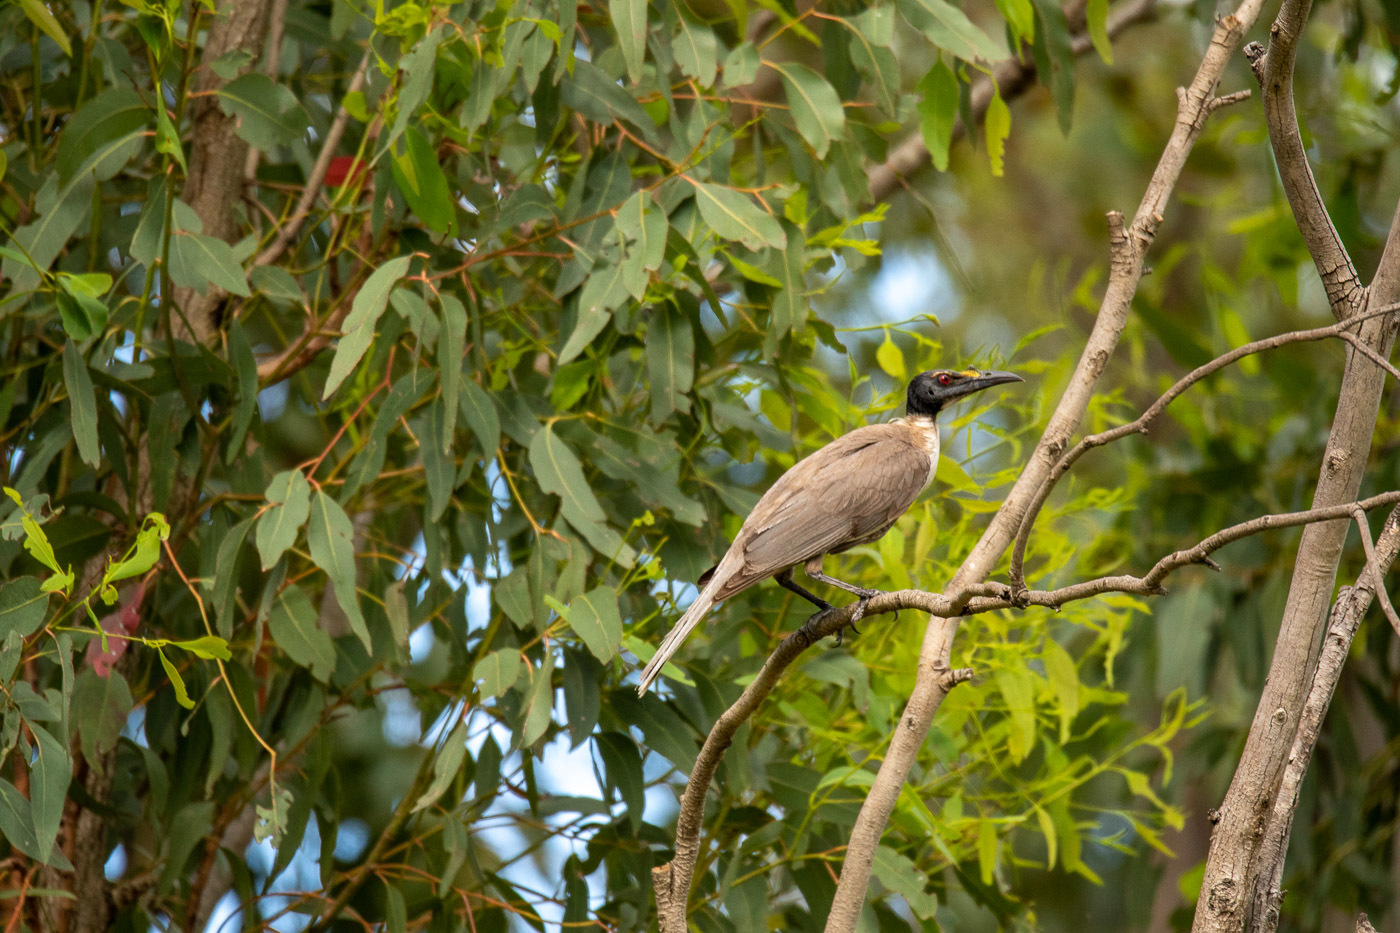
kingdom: Animalia
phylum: Chordata
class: Aves
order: Passeriformes
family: Meliphagidae
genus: Philemon
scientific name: Philemon corniculatus
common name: Noisy friarbird
